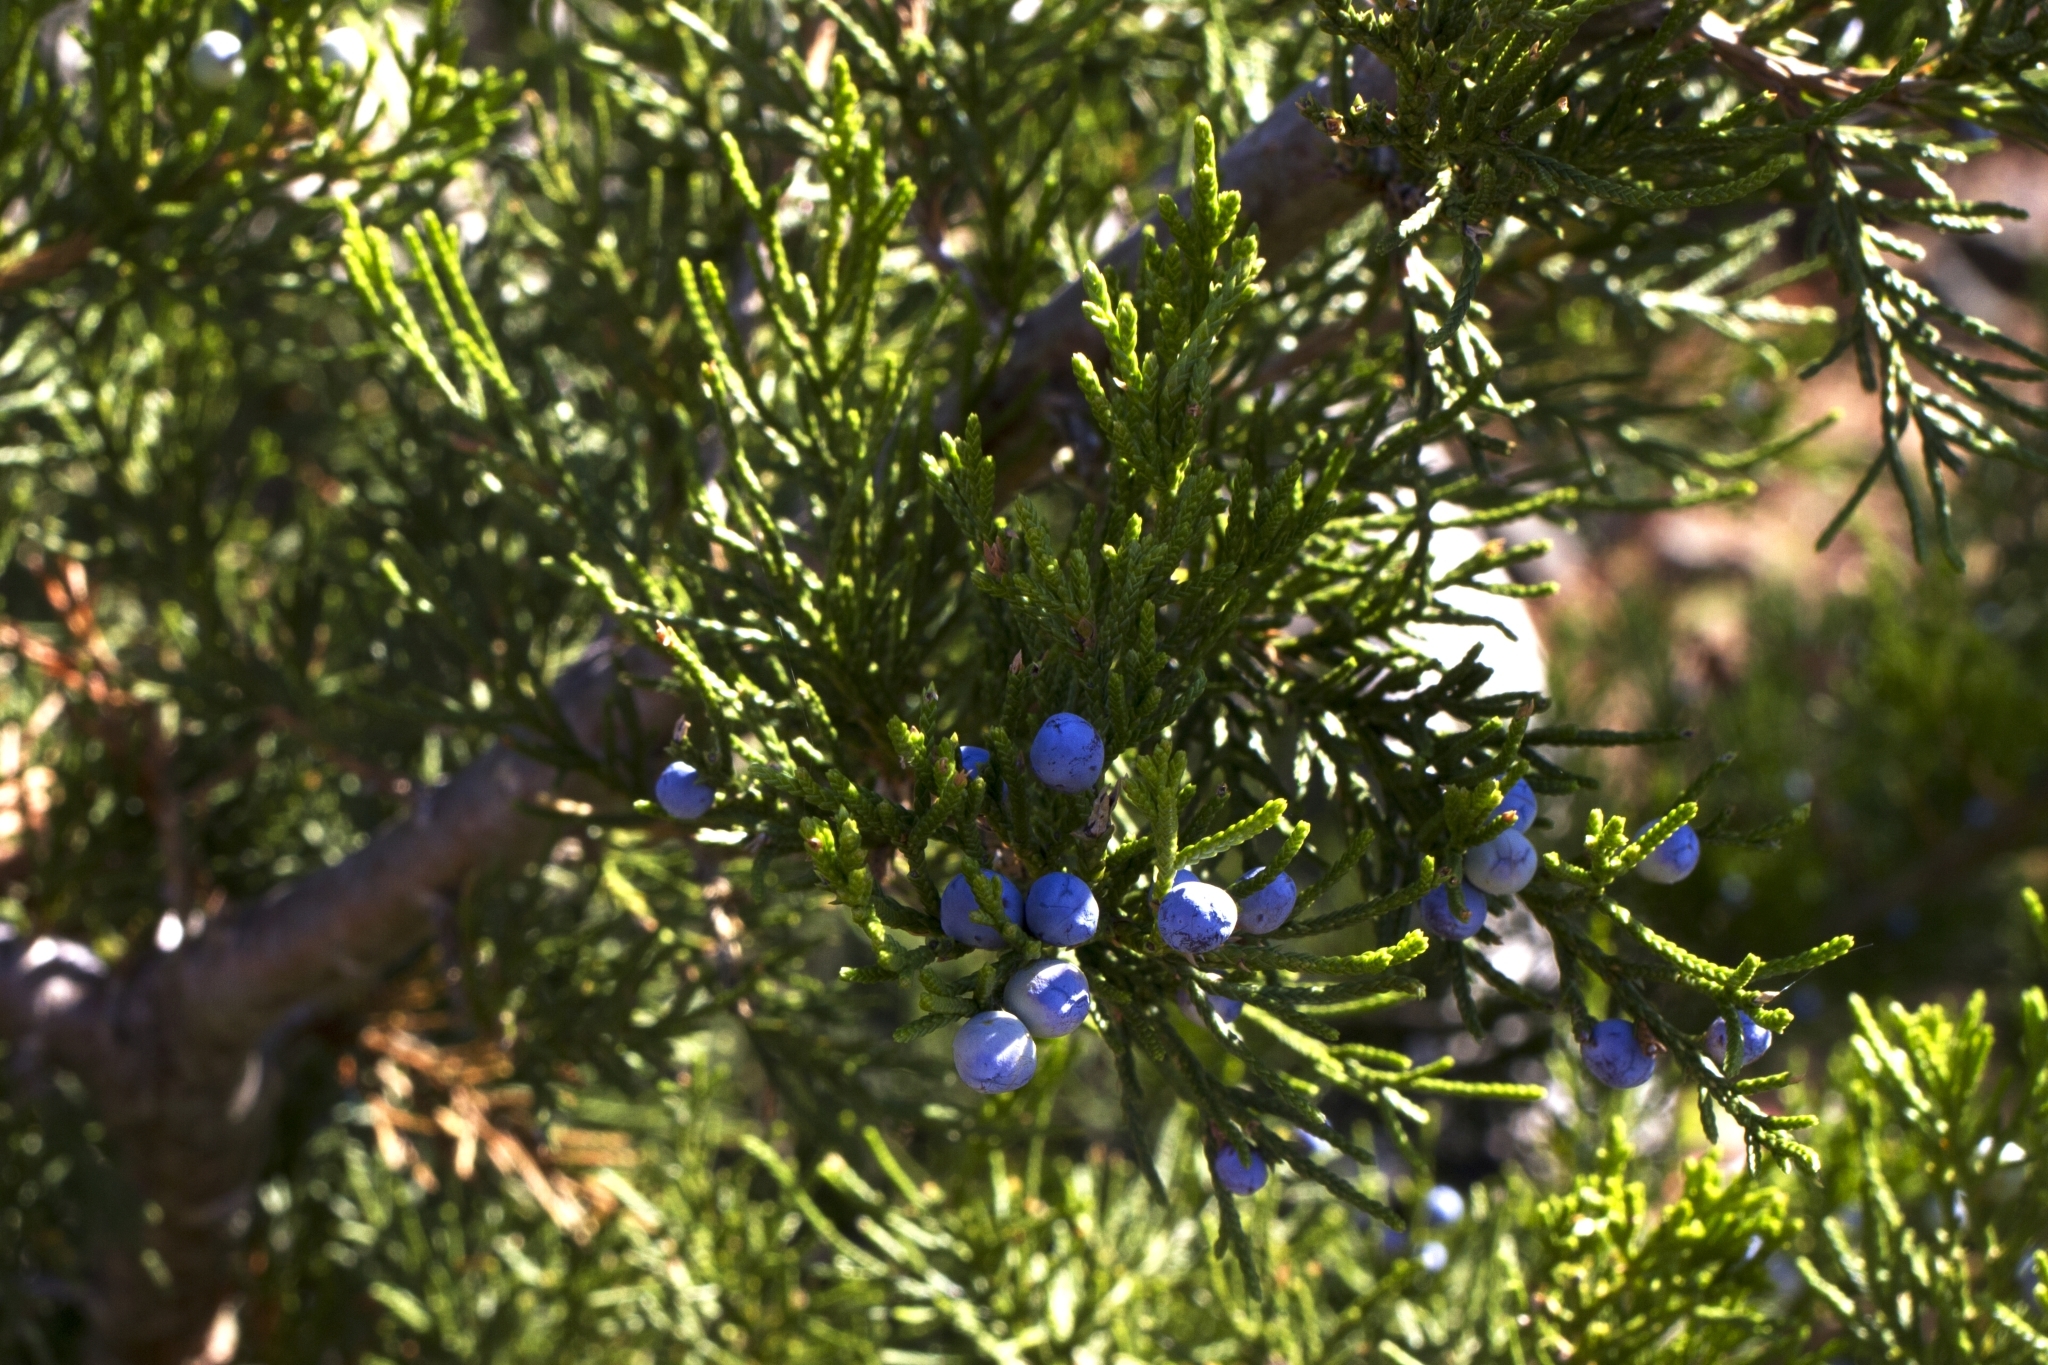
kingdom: Plantae
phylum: Tracheophyta
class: Pinopsida
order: Pinales
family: Cupressaceae
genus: Juniperus
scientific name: Juniperus virginiana
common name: Red juniper
